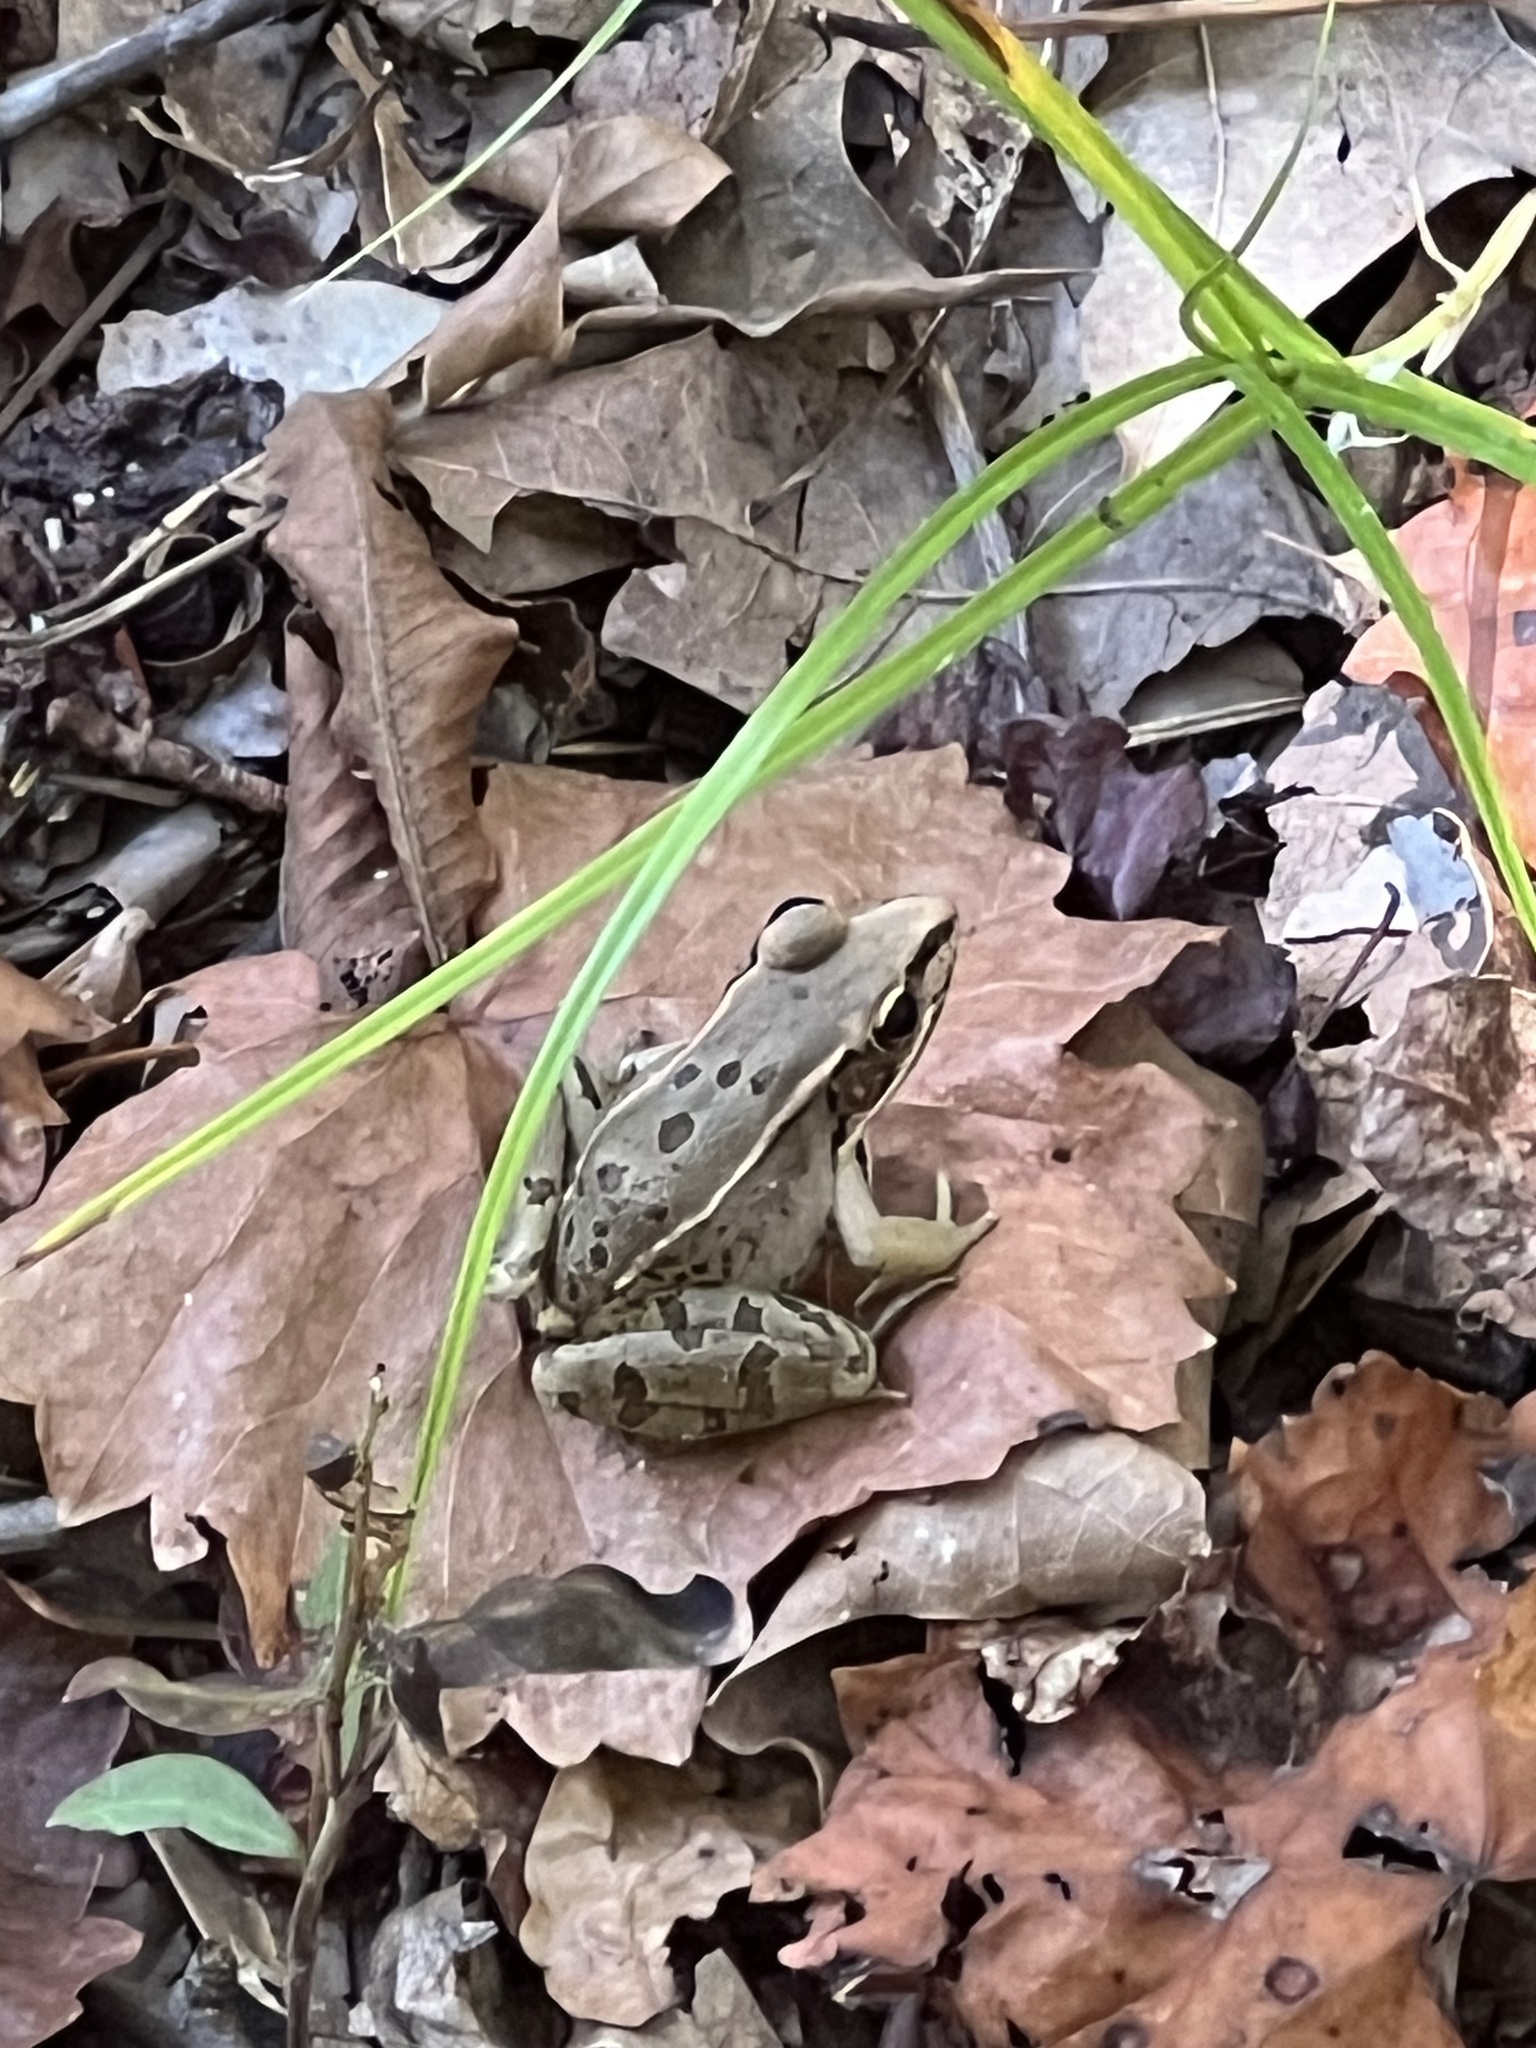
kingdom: Animalia
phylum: Chordata
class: Amphibia
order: Anura
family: Ranidae
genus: Lithobates
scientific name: Lithobates sphenocephalus
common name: Southern leopard frog
